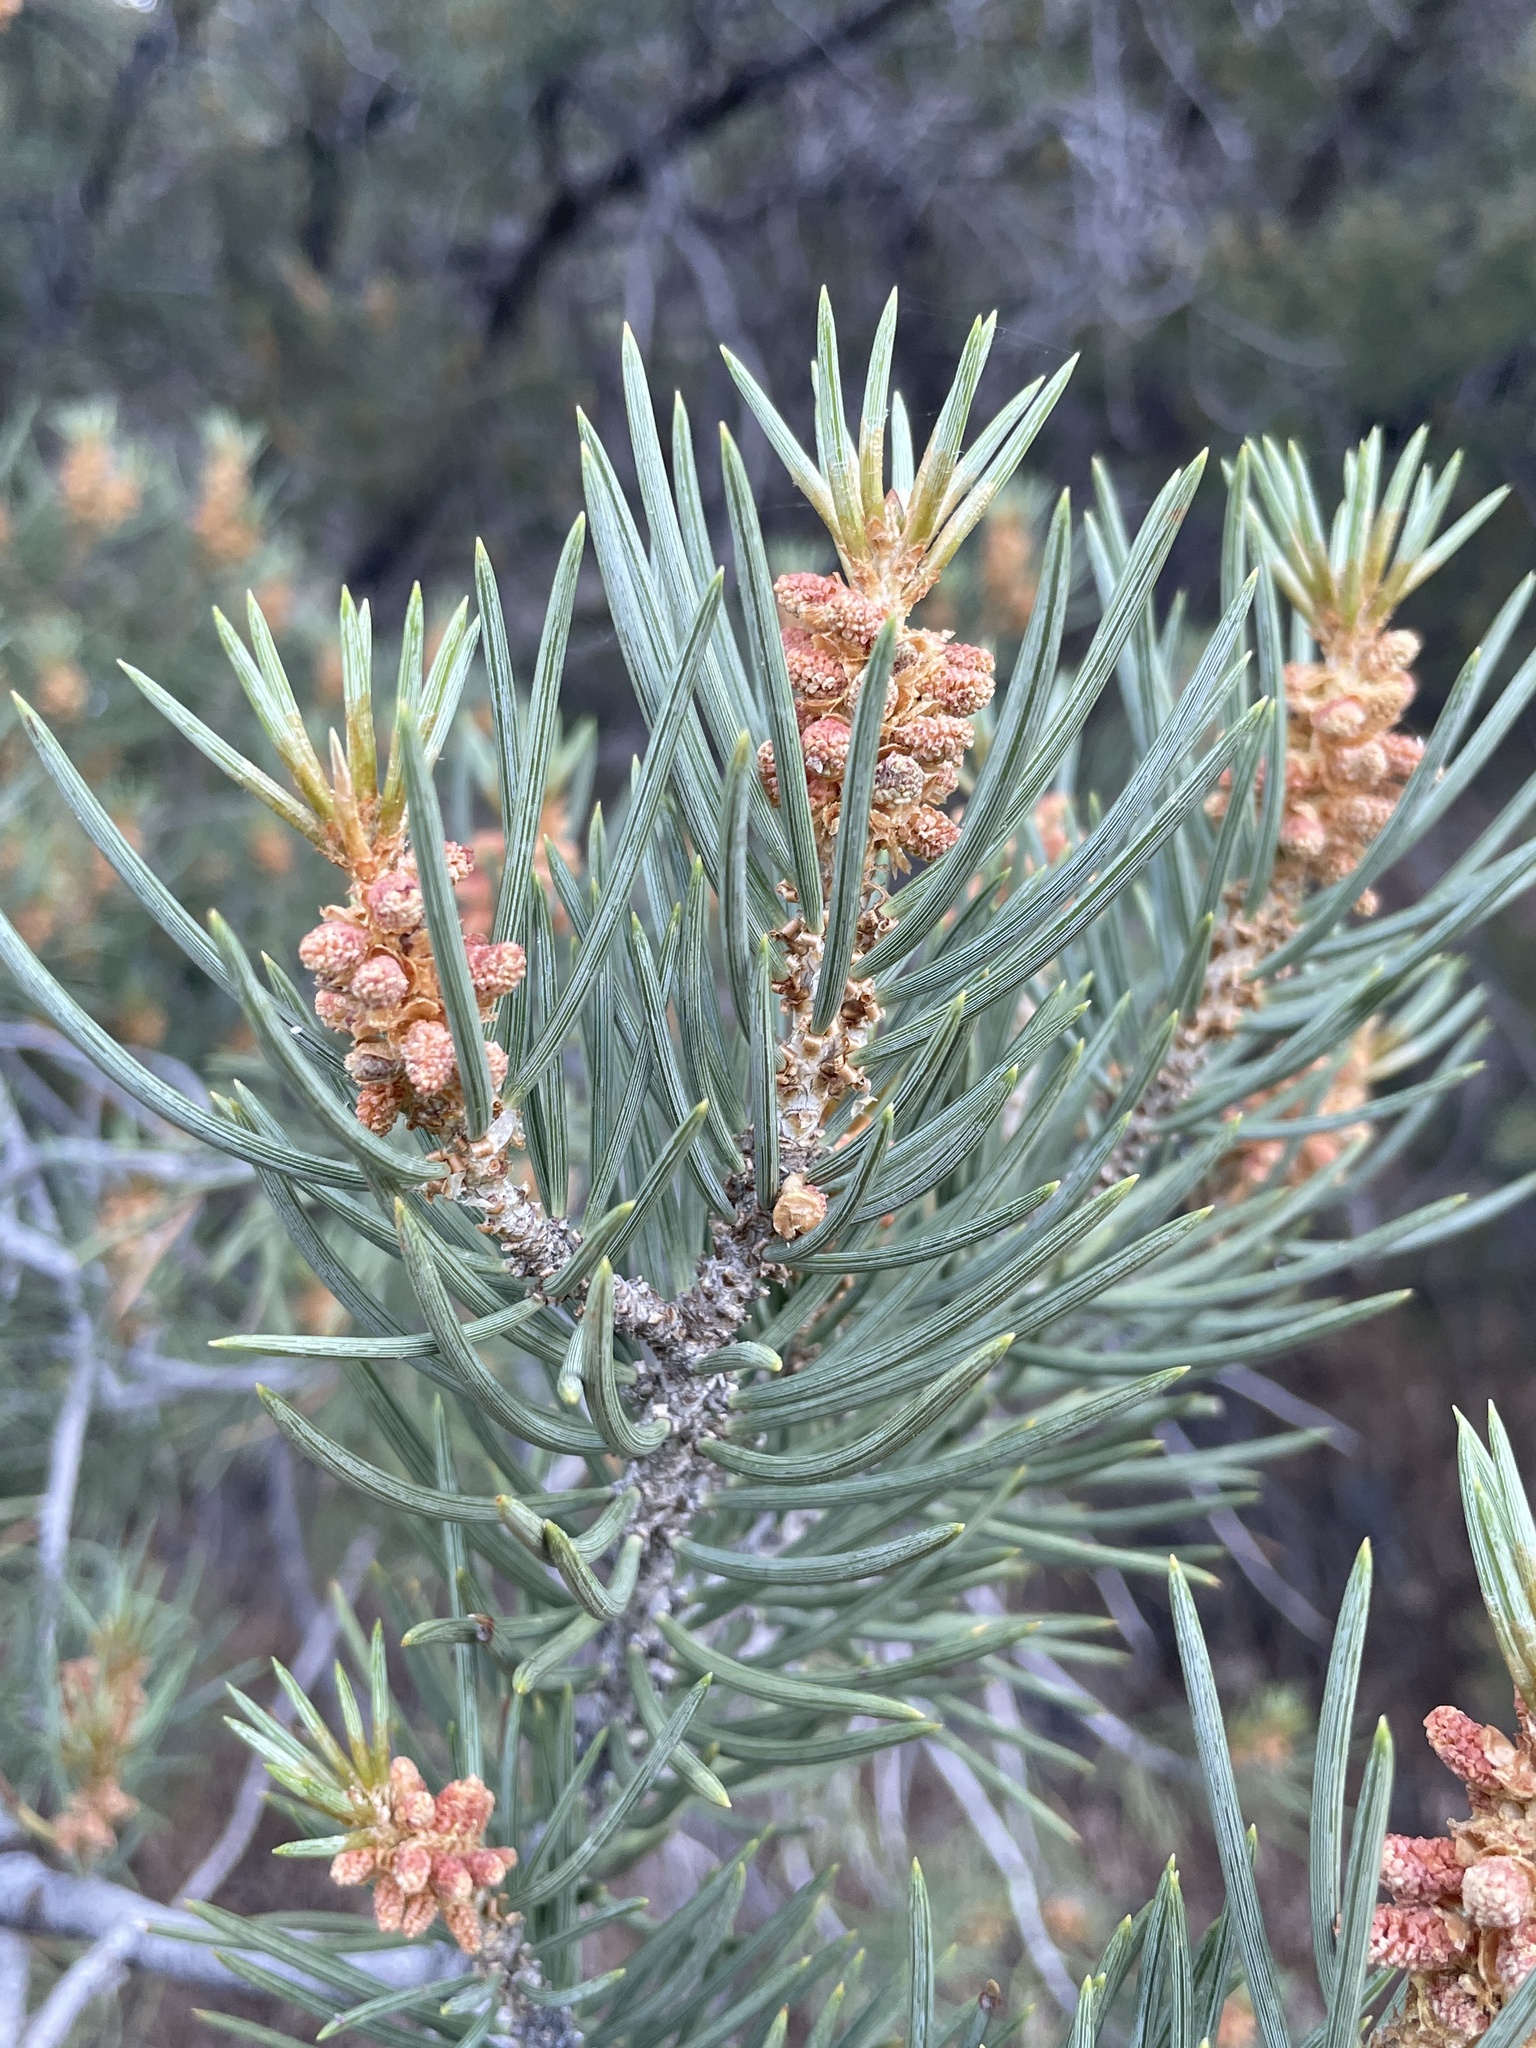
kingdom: Plantae
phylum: Tracheophyta
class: Pinopsida
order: Pinales
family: Pinaceae
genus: Pinus
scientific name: Pinus monophylla
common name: One-leaved nut pine
